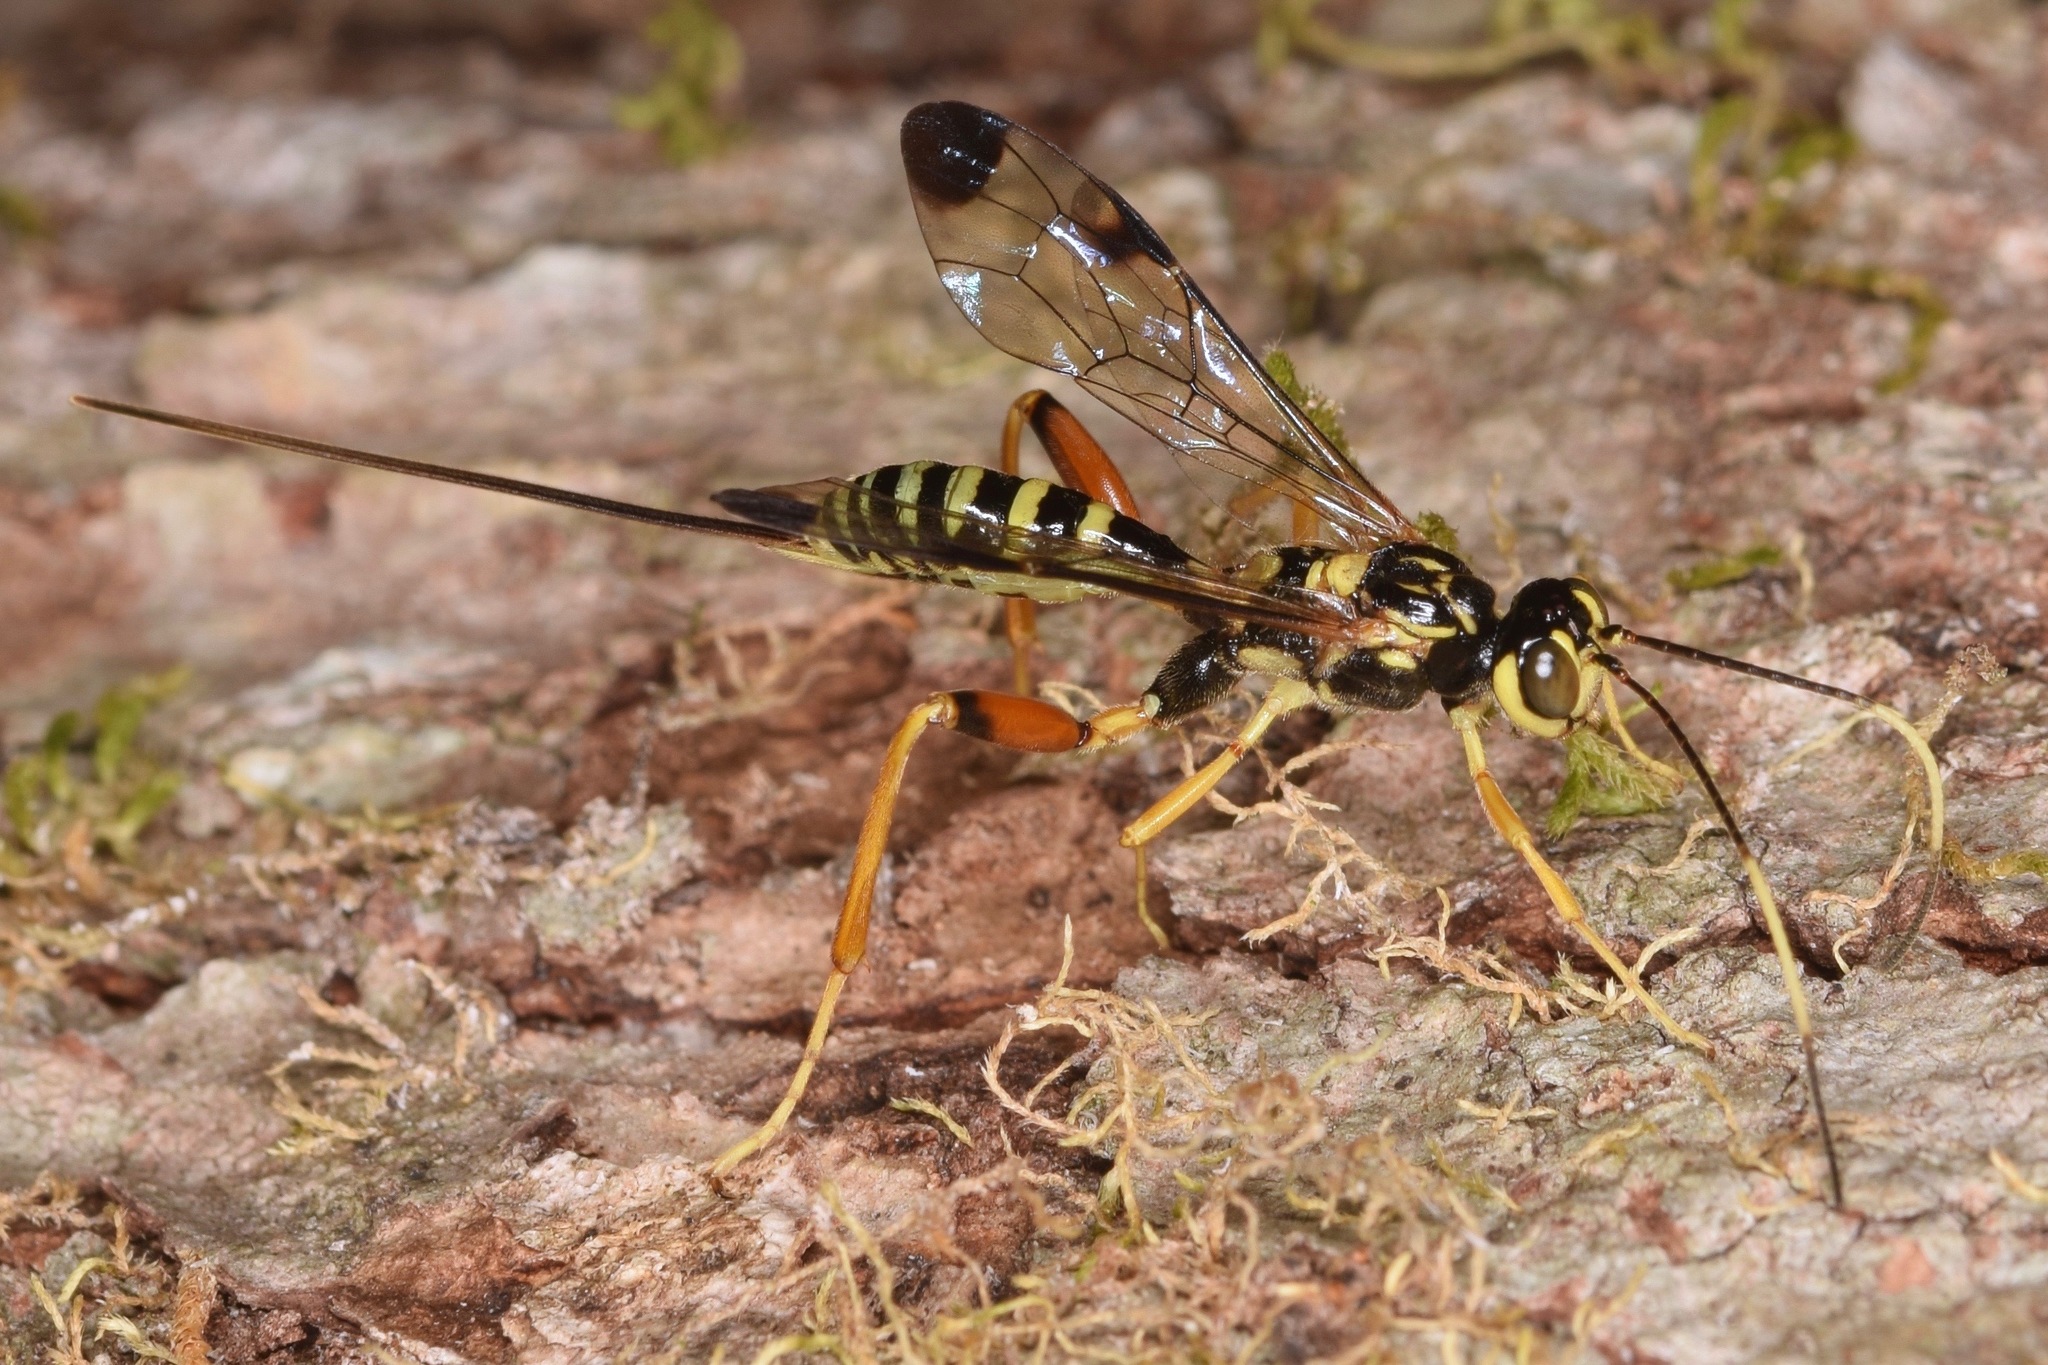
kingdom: Animalia
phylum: Arthropoda
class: Insecta
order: Hymenoptera
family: Ichneumonidae
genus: Spilopteron
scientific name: Spilopteron occiputale
